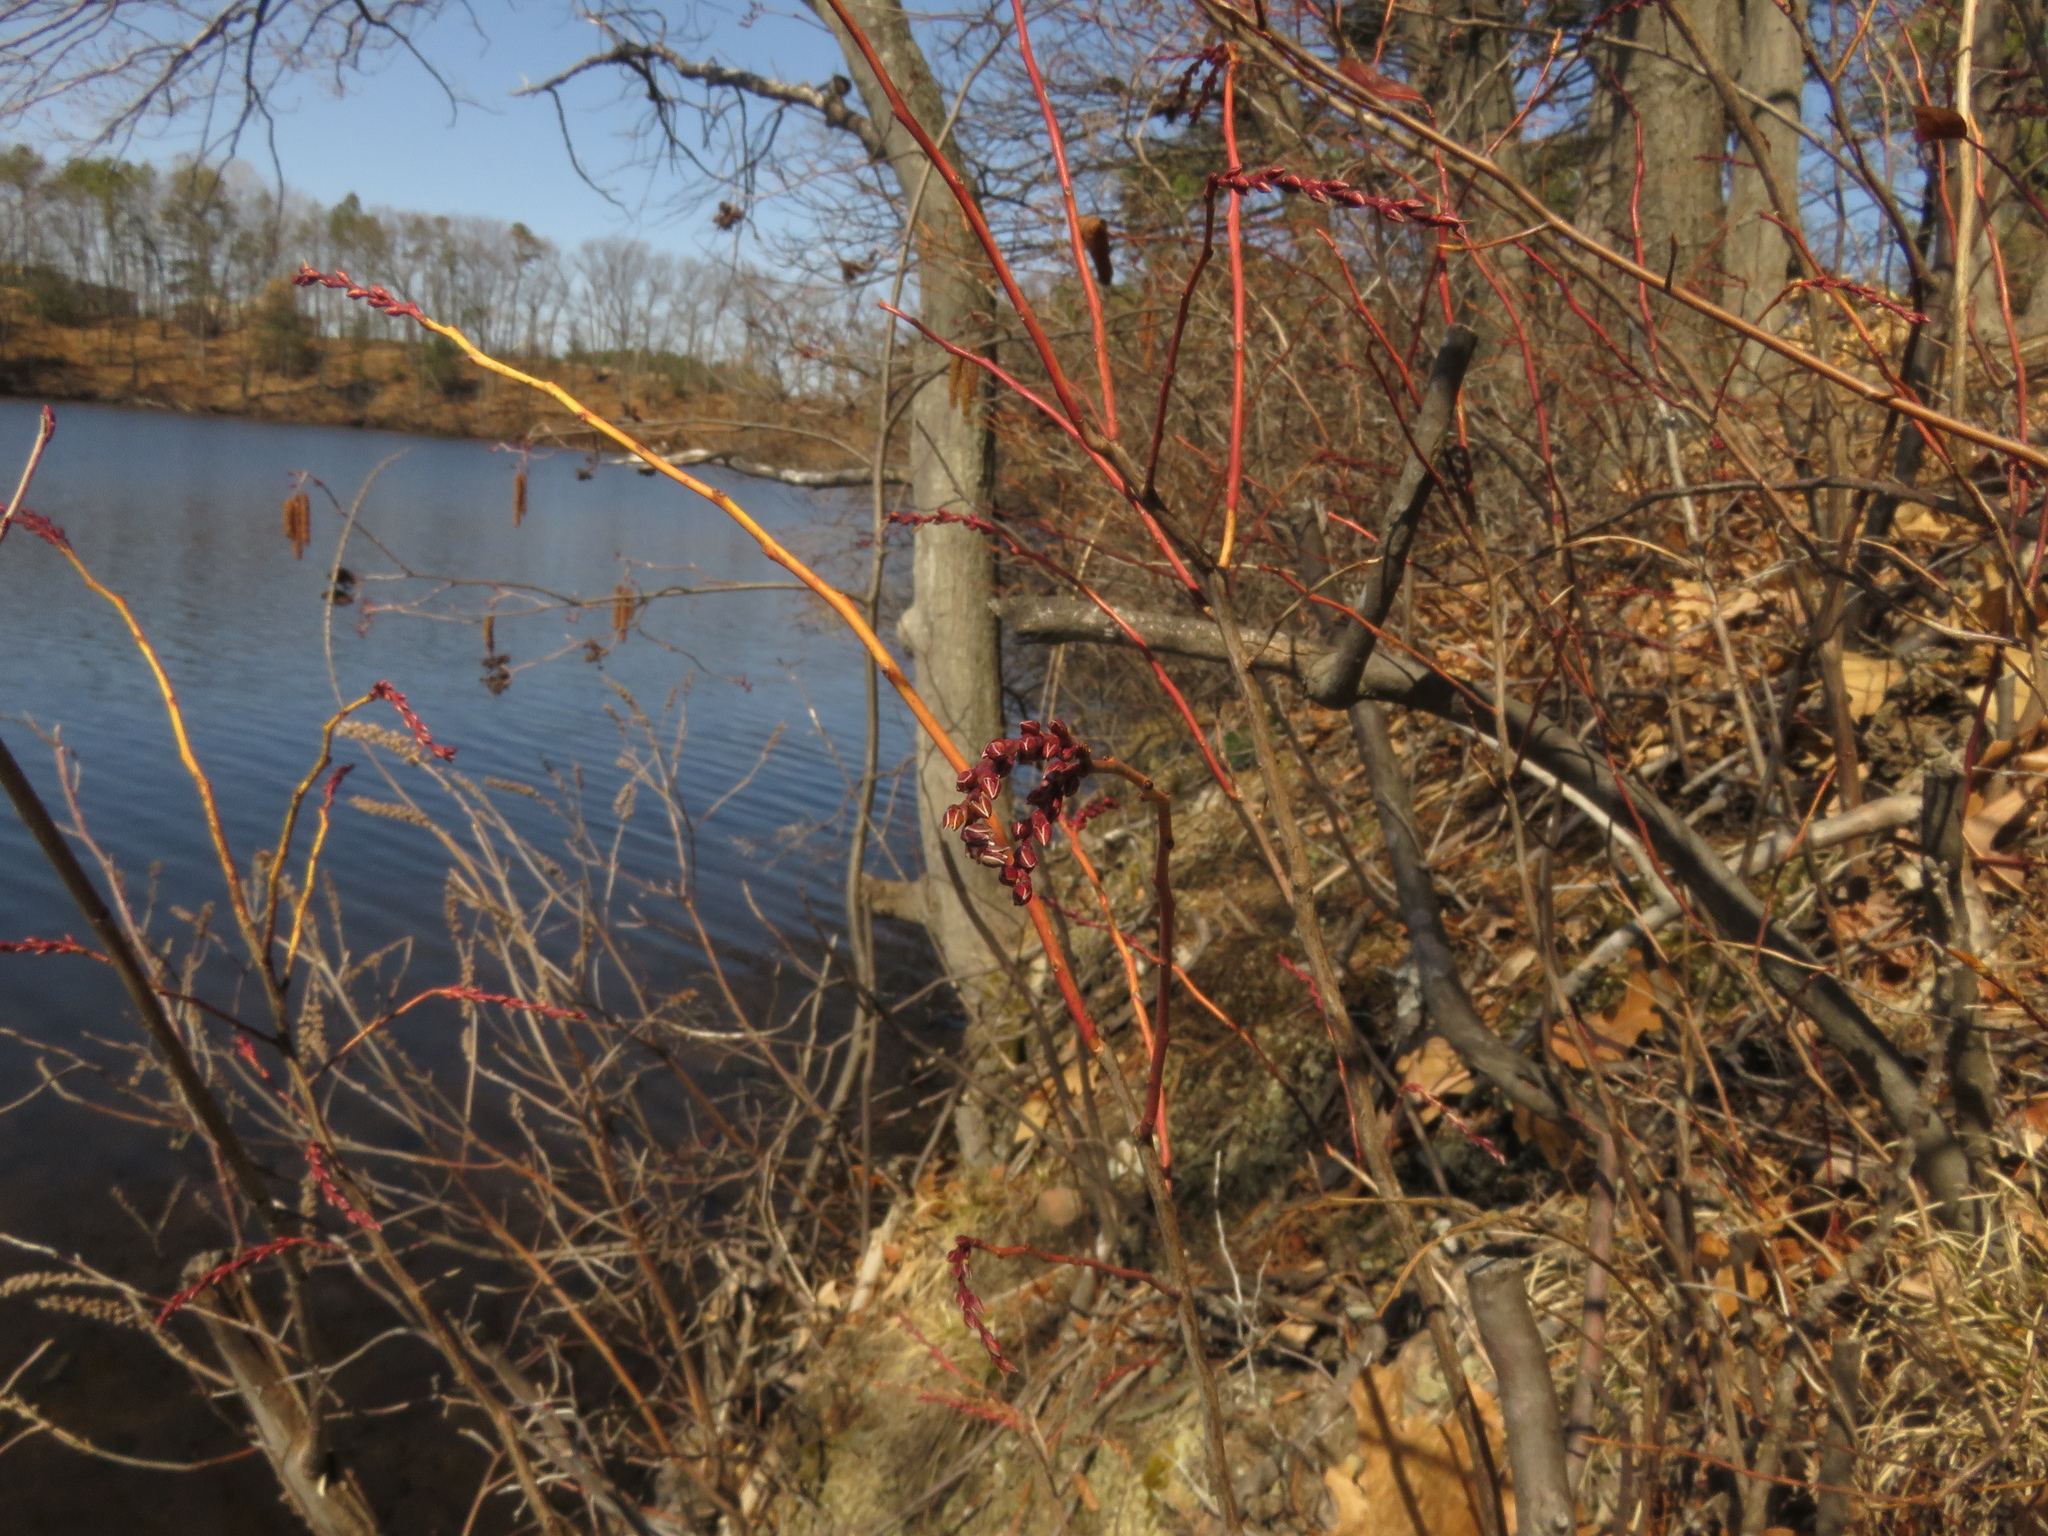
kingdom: Plantae
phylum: Tracheophyta
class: Magnoliopsida
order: Ericales
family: Ericaceae
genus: Eubotrys
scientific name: Eubotrys racemosa
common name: Fetterbush
